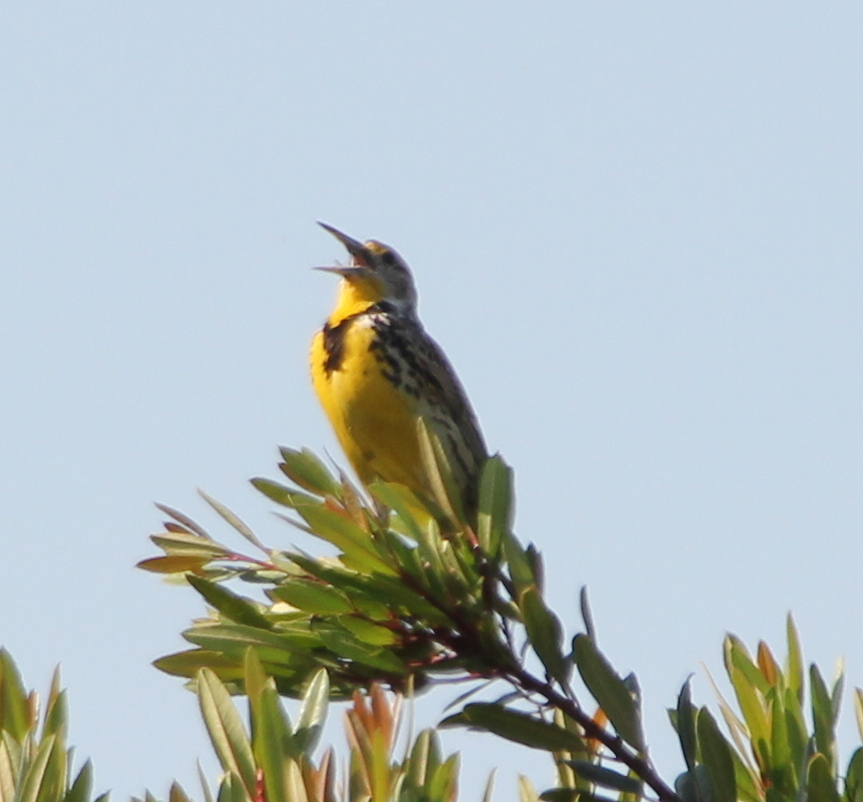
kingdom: Animalia
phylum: Chordata
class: Aves
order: Passeriformes
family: Icteridae
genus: Sturnella
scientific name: Sturnella neglecta
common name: Western meadowlark
